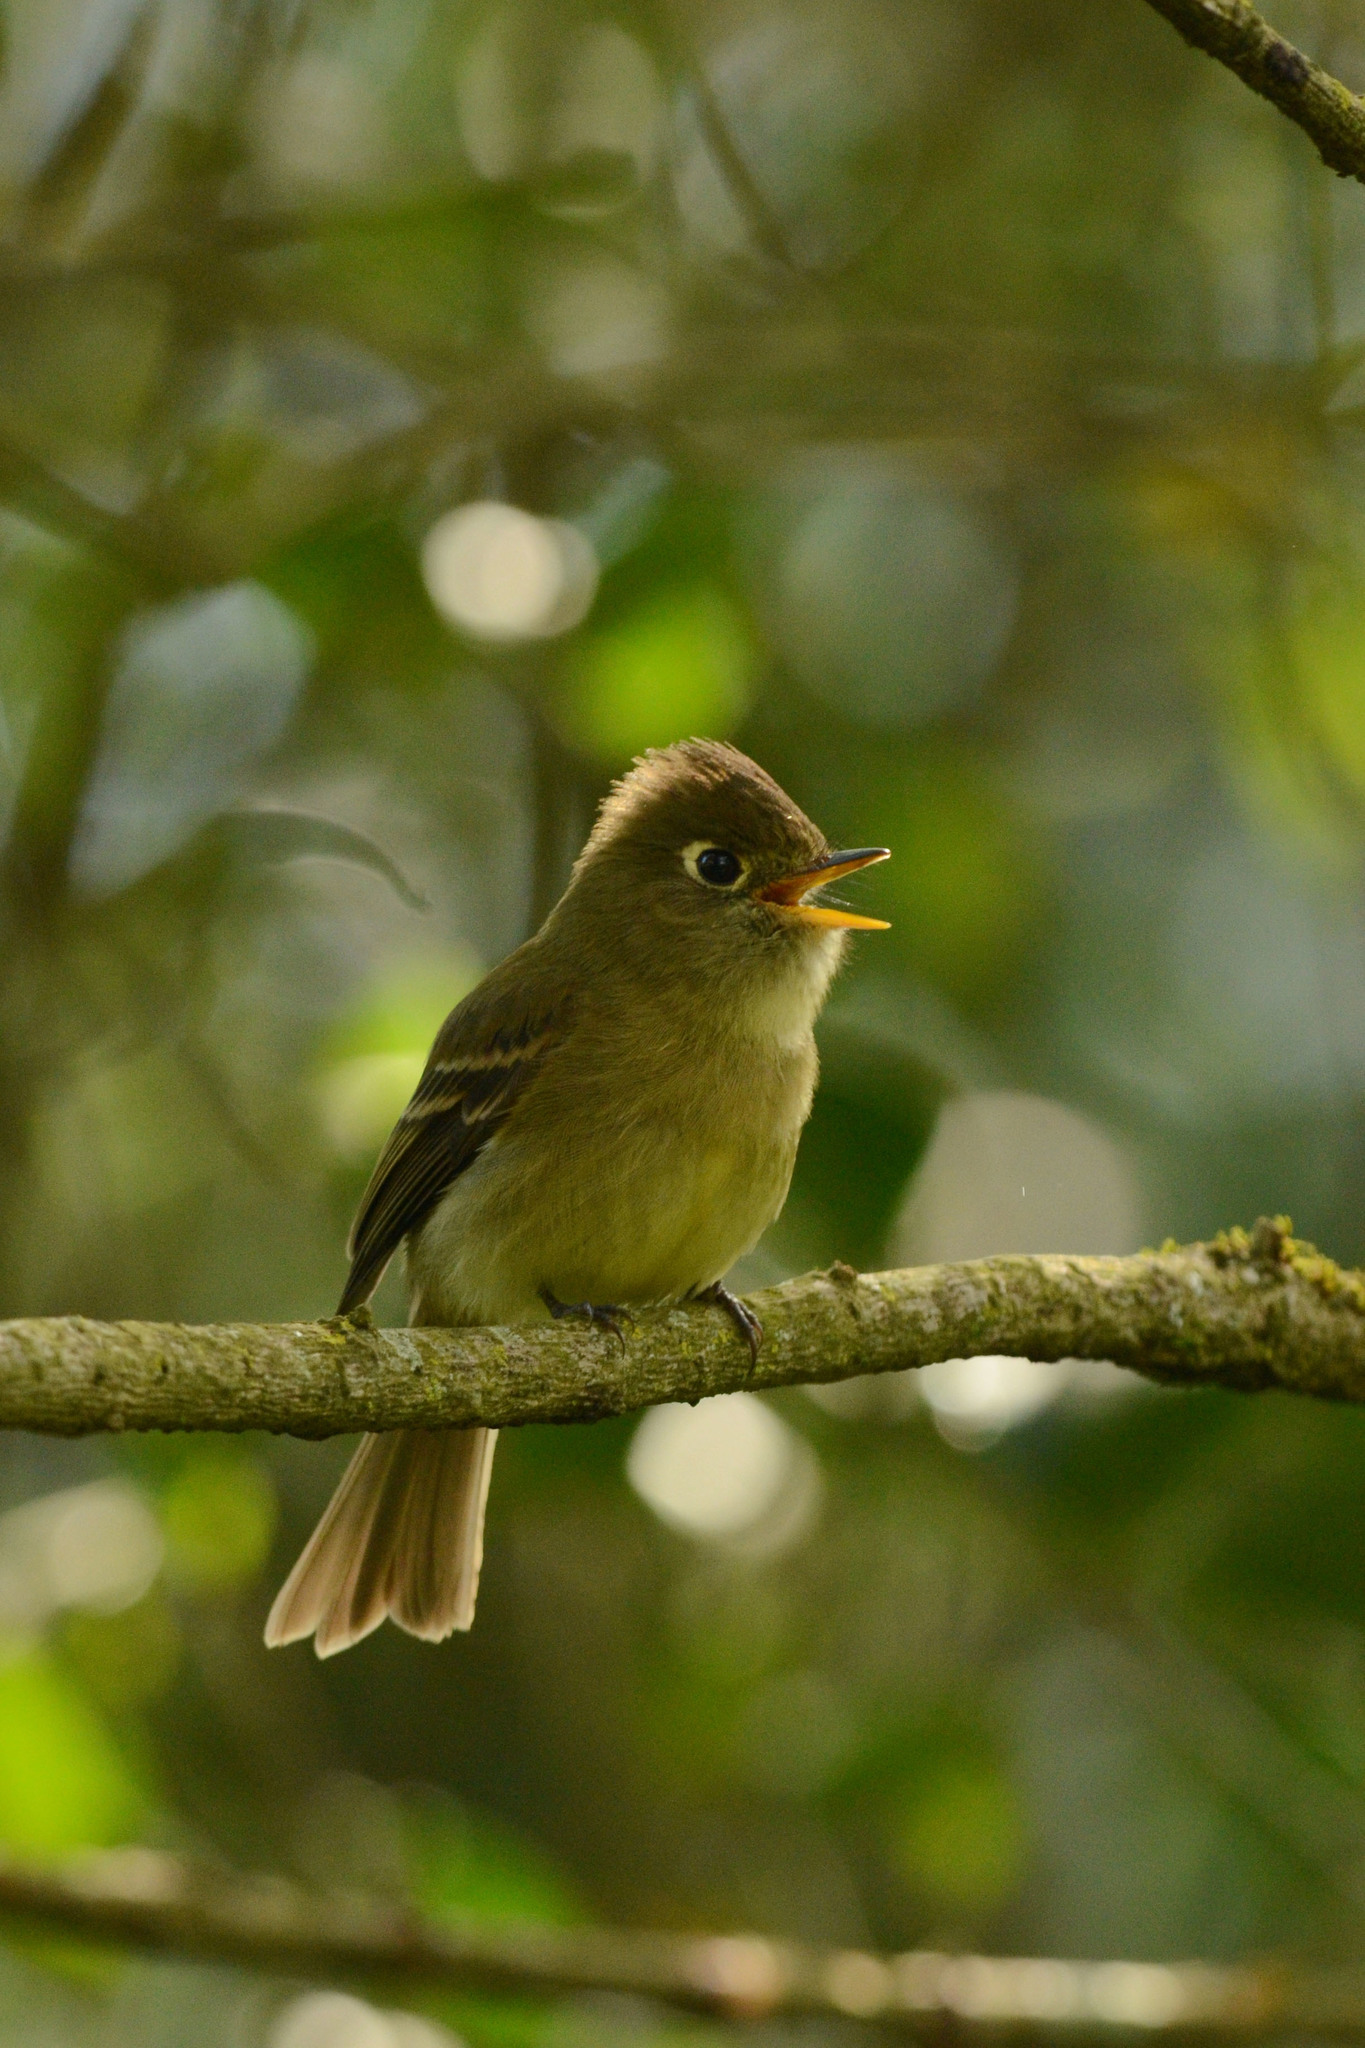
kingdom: Animalia
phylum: Chordata
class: Aves
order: Passeriformes
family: Tyrannidae
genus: Empidonax
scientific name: Empidonax difficilis
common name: Pacific-slope flycatcher
